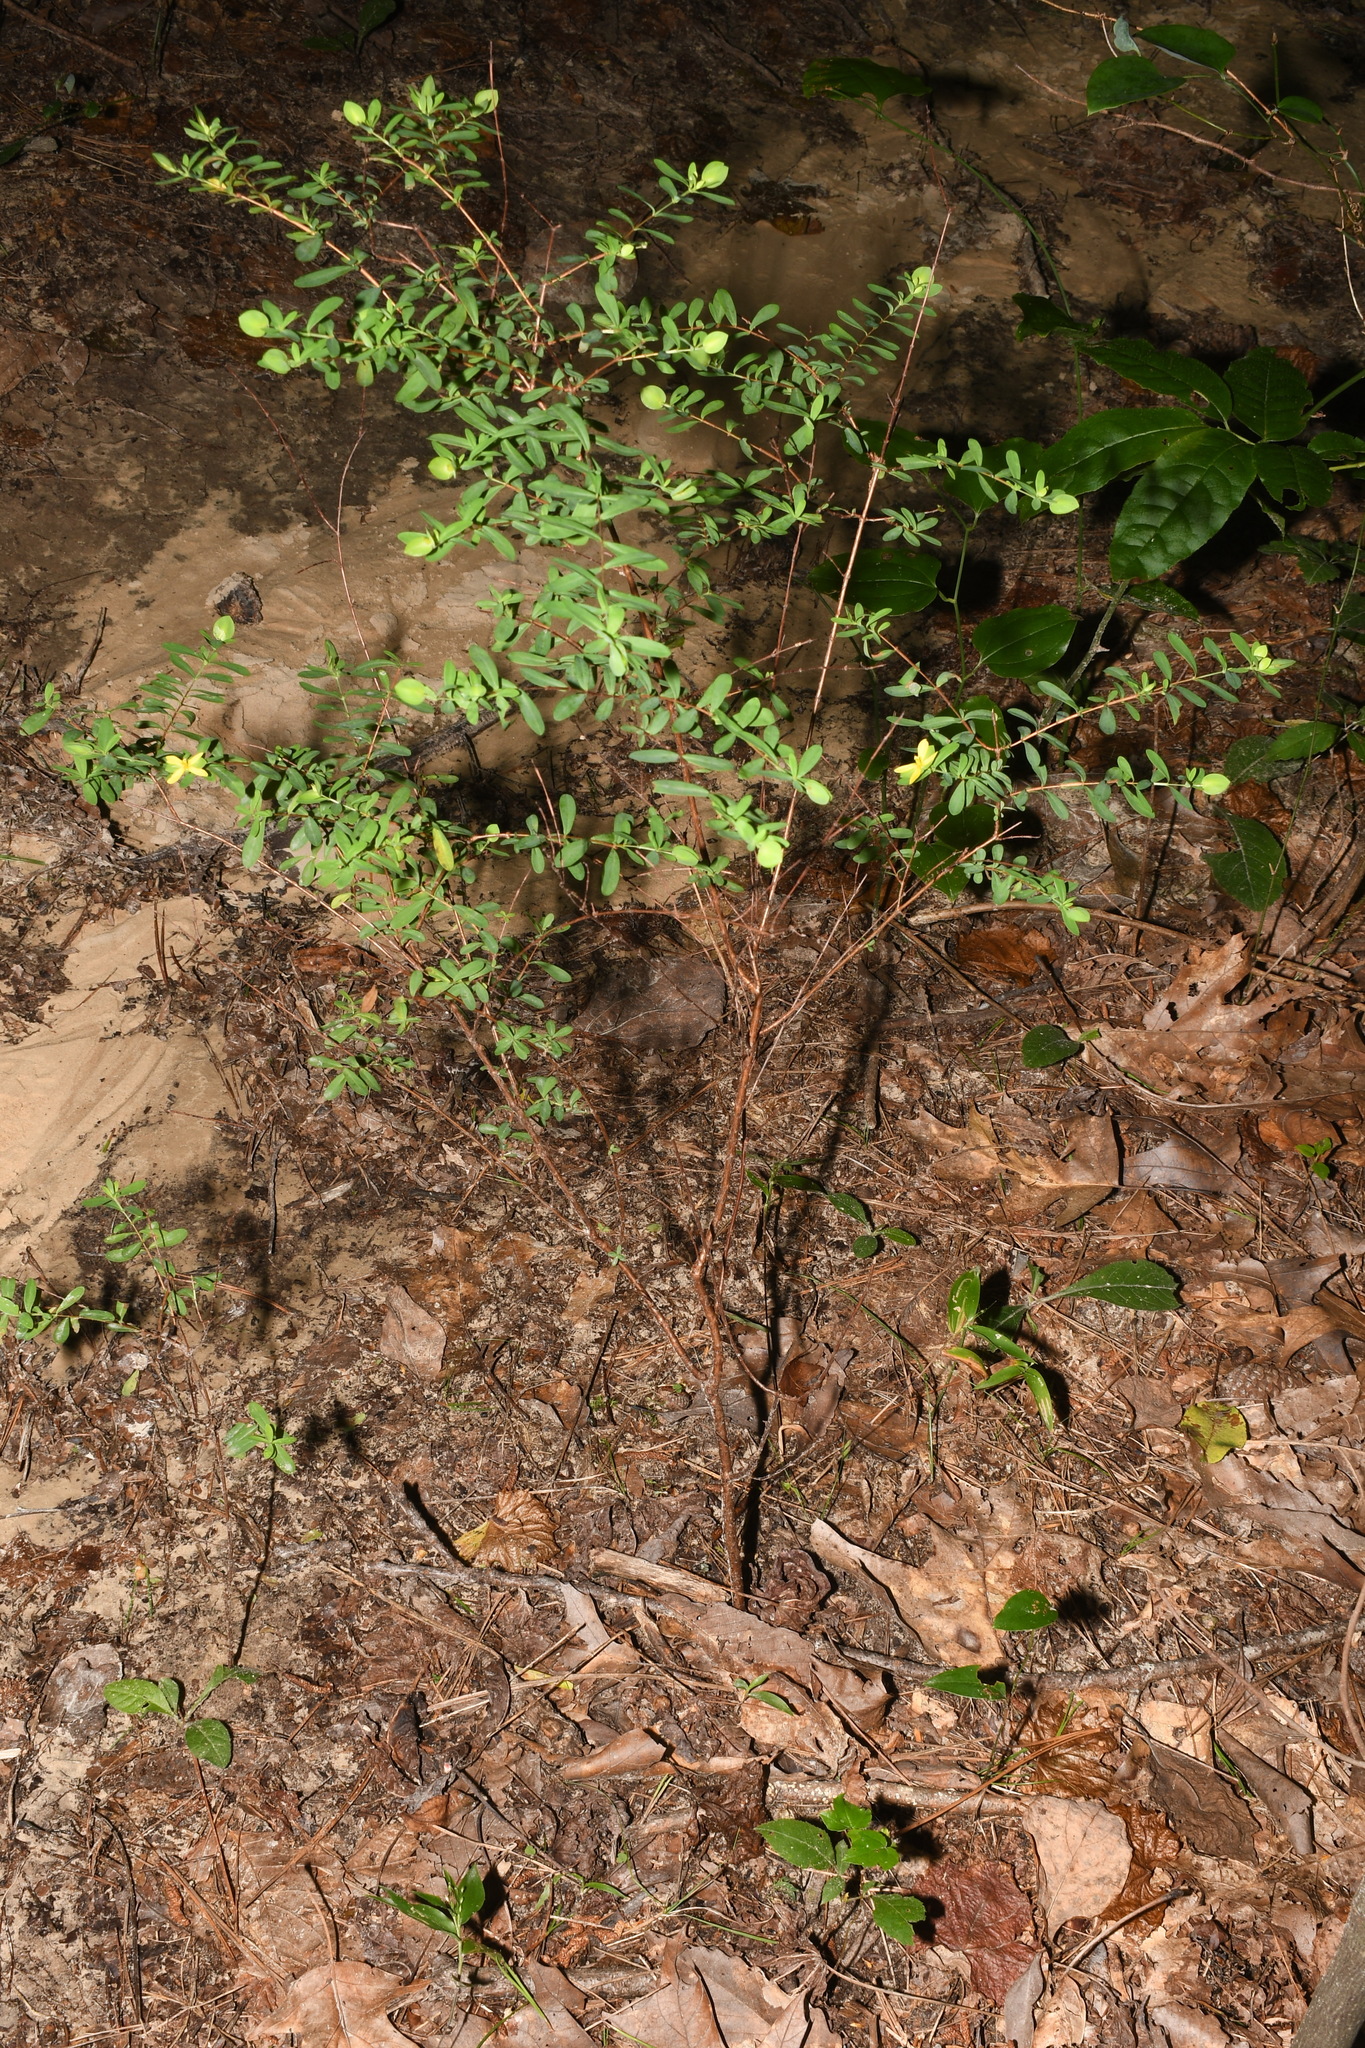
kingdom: Plantae
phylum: Tracheophyta
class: Magnoliopsida
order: Malpighiales
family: Hypericaceae
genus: Hypericum
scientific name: Hypericum hypericoides
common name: St. andrew's cross
